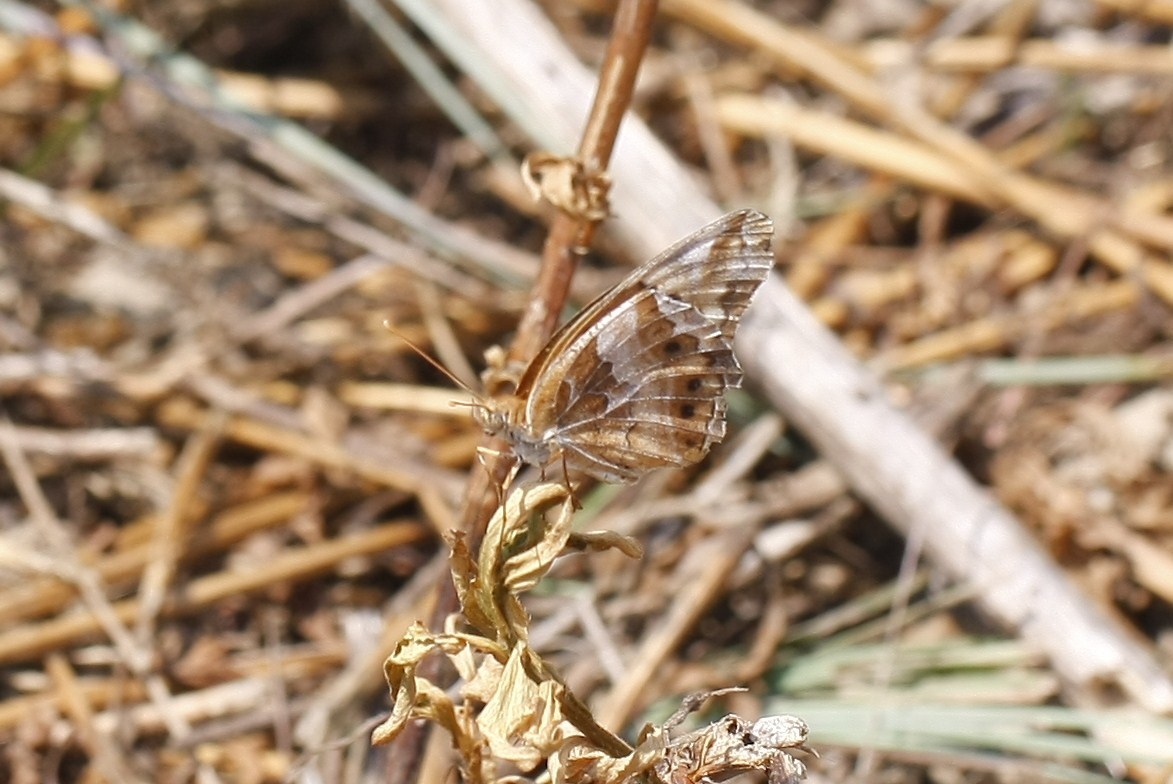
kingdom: Animalia
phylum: Arthropoda
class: Insecta
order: Lepidoptera
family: Nymphalidae
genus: Euptoieta
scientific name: Euptoieta claudia
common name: Variegated fritillary
